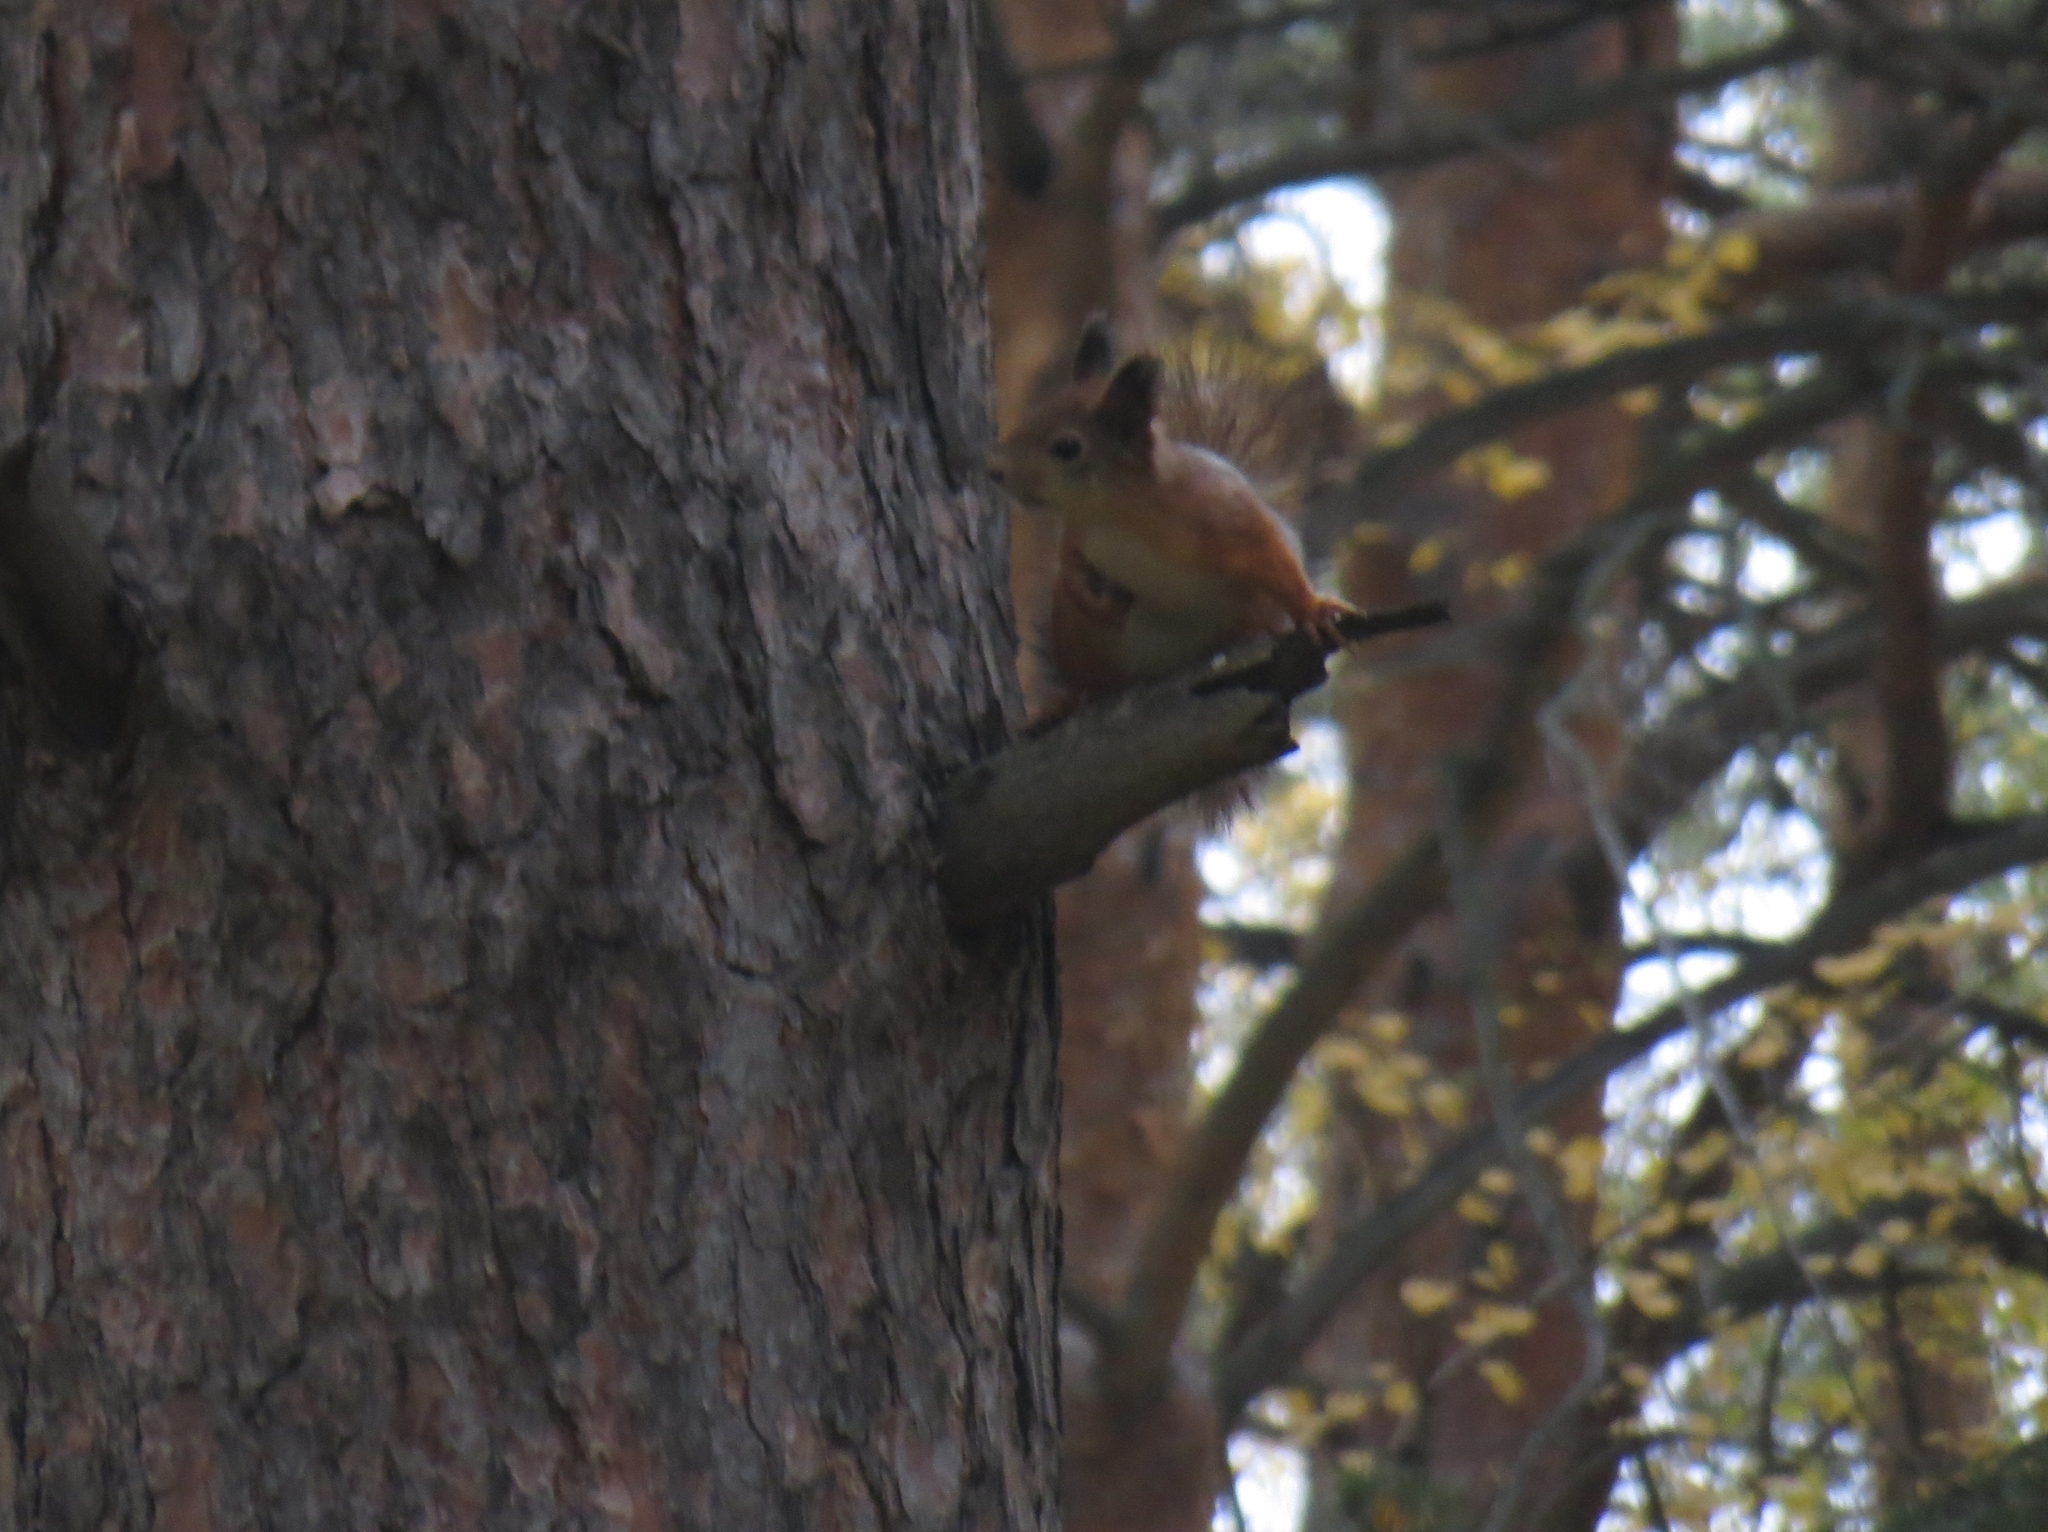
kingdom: Animalia
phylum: Chordata
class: Mammalia
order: Rodentia
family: Sciuridae
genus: Sciurus
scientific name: Sciurus vulgaris
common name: Eurasian red squirrel
